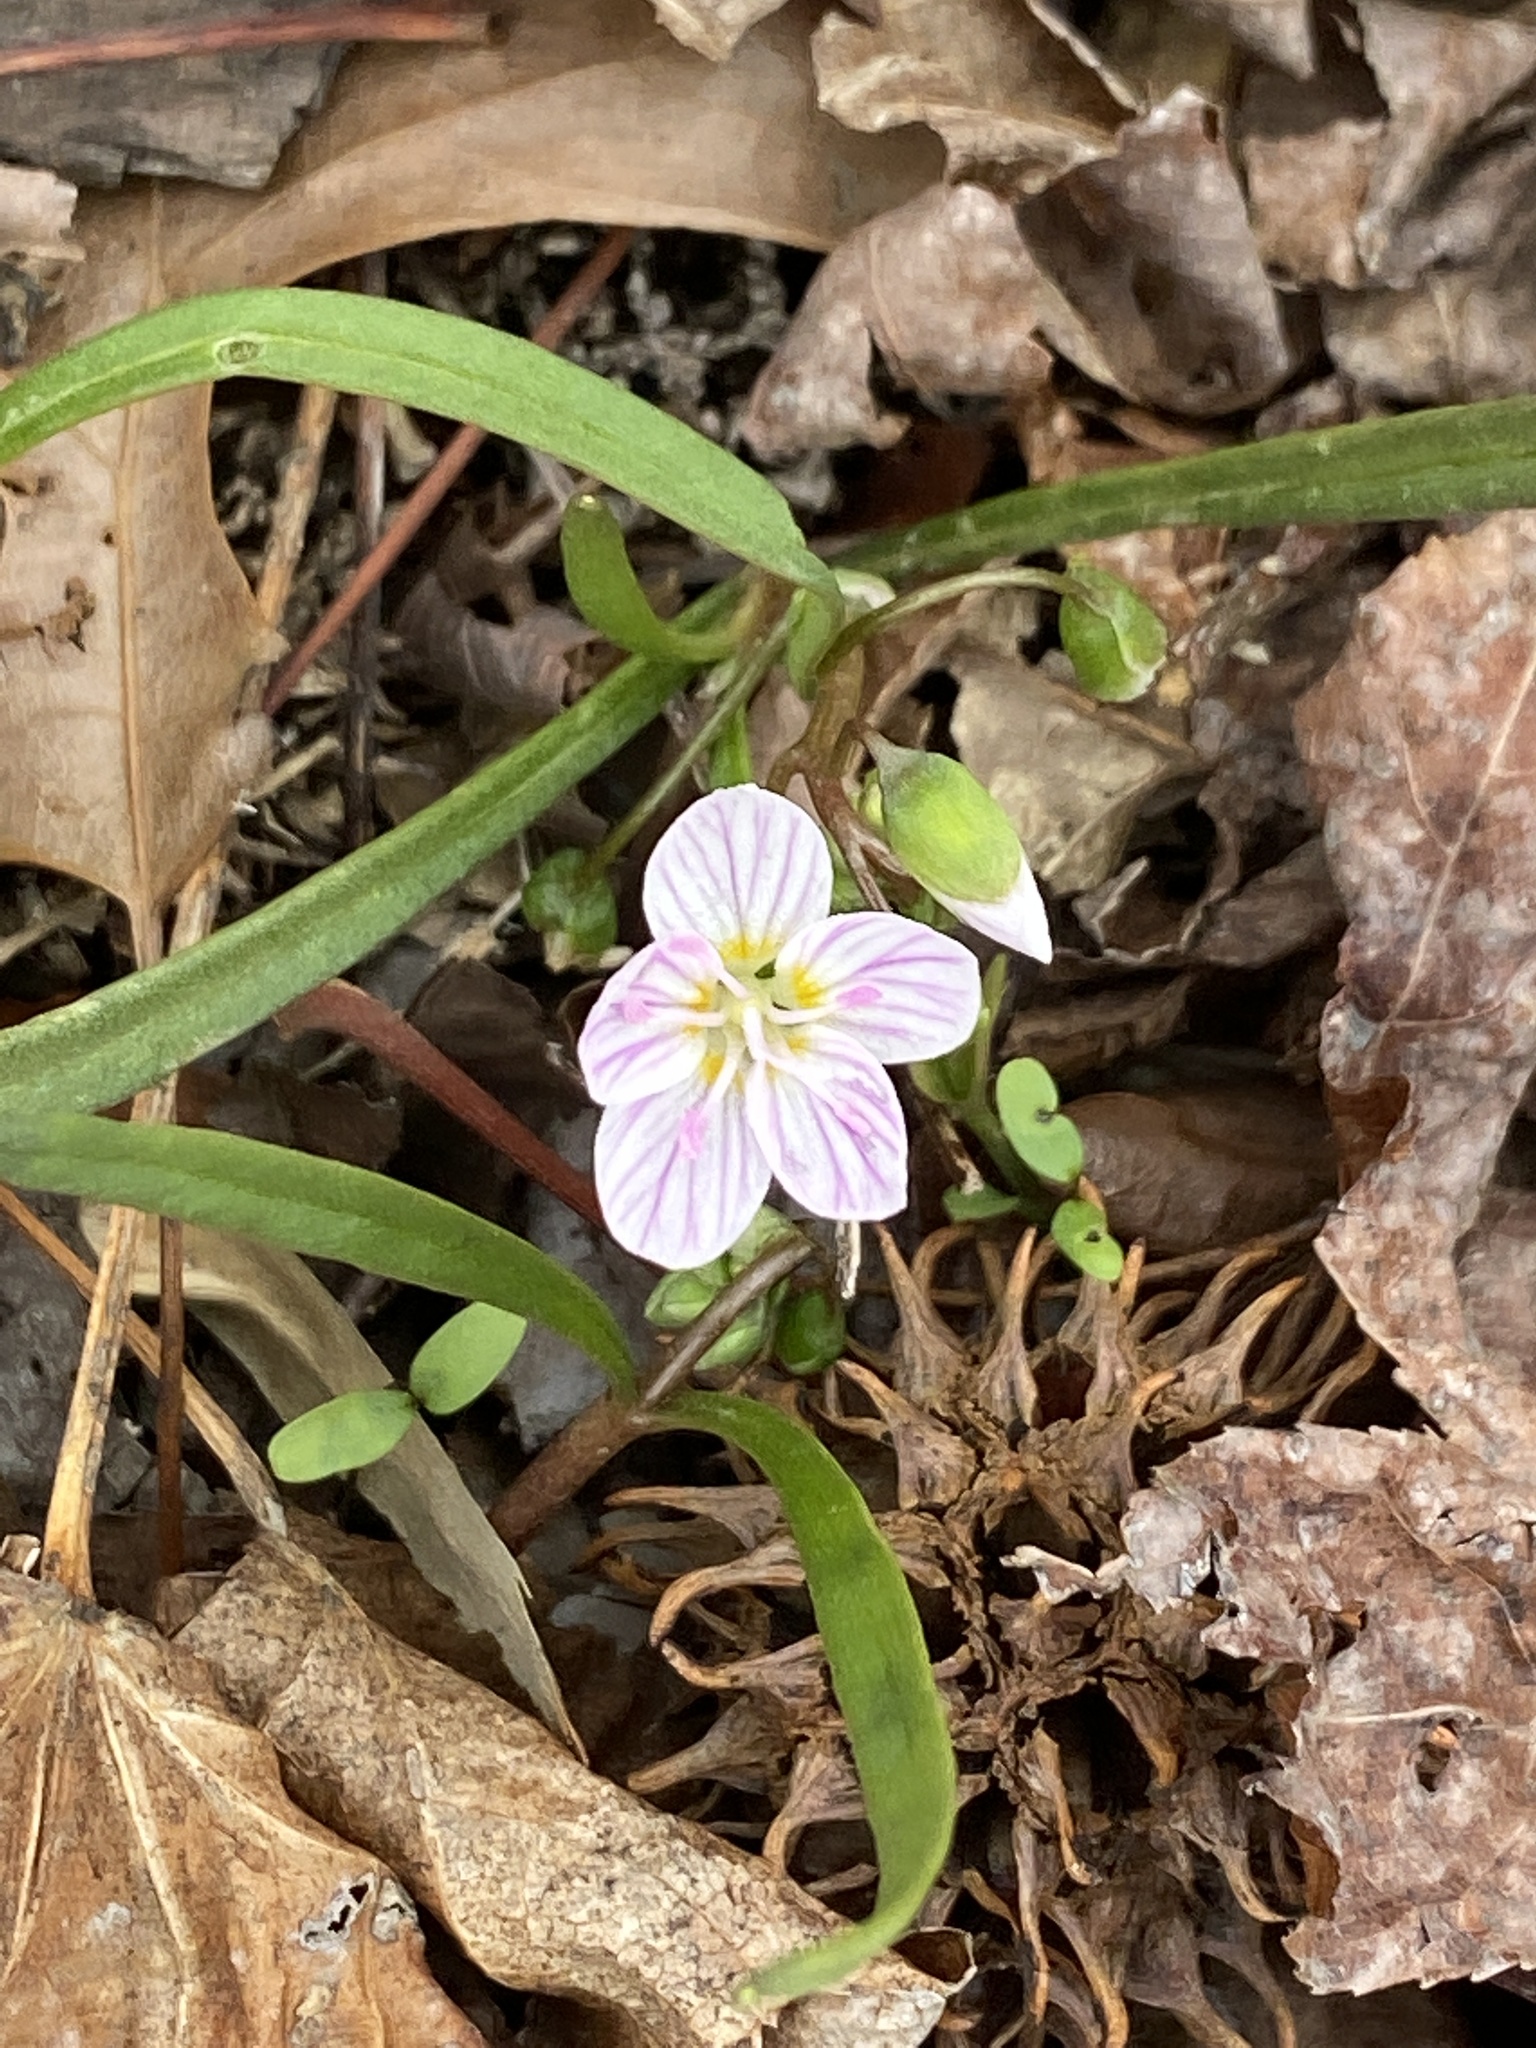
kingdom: Plantae
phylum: Tracheophyta
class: Magnoliopsida
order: Caryophyllales
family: Montiaceae
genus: Claytonia
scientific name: Claytonia virginica
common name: Virginia springbeauty
